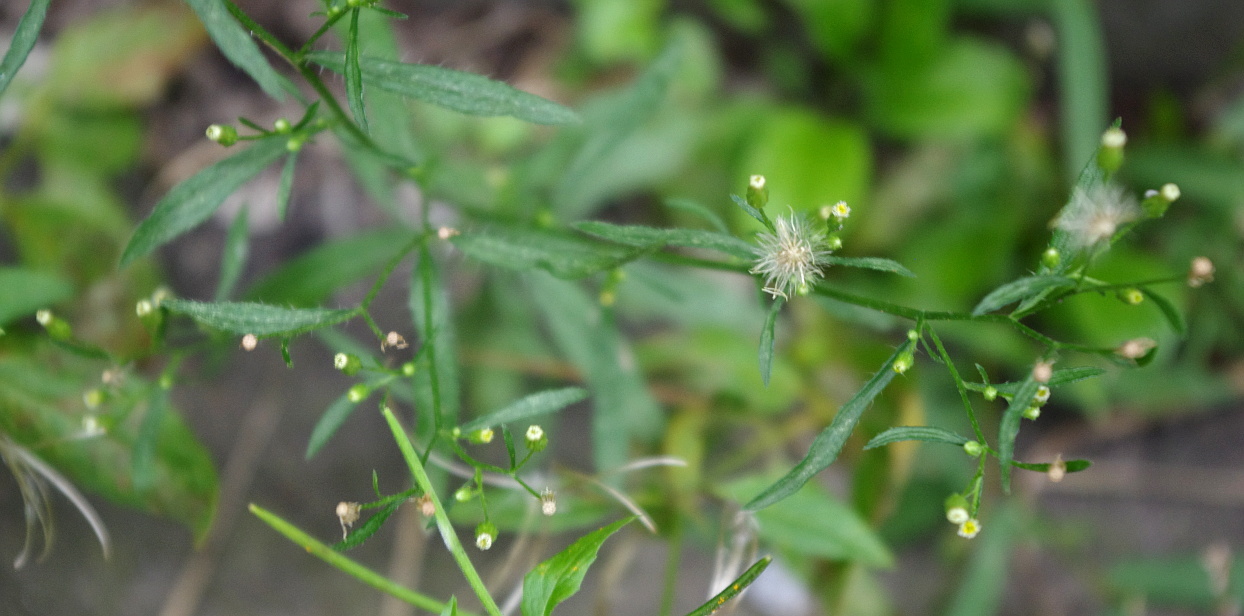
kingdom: Plantae
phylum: Tracheophyta
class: Magnoliopsida
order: Asterales
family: Asteraceae
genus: Erigeron
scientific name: Erigeron canadensis
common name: Canadian fleabane
